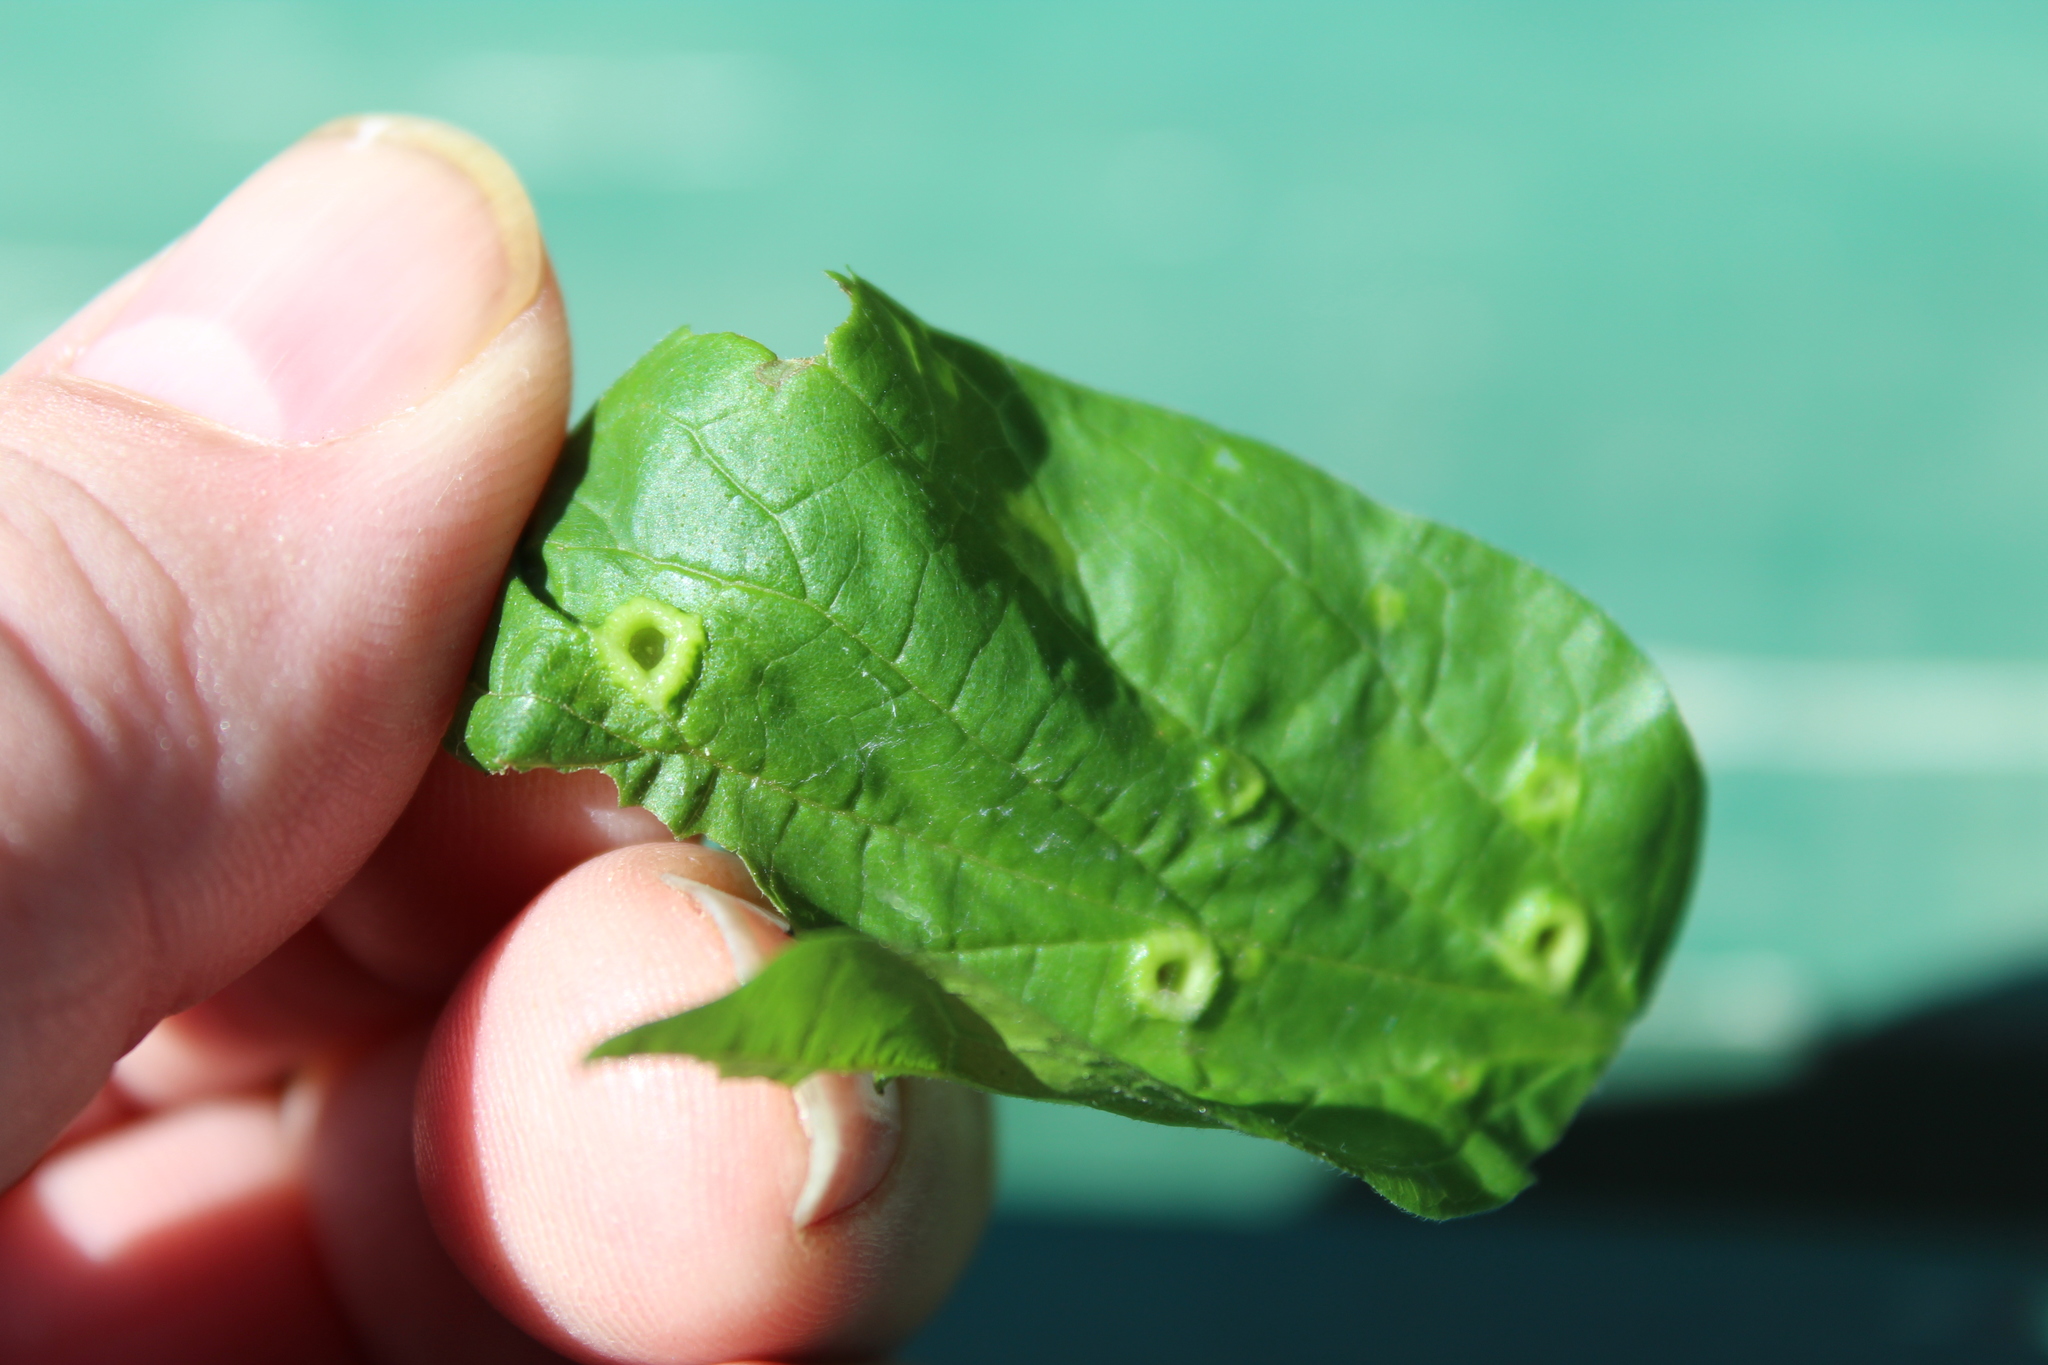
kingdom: Animalia
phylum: Arthropoda
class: Insecta
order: Hemiptera
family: Aphalaridae
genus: Pachypsylla
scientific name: Pachypsylla celtidismamma
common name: Hackberry nipplegall psyllid
